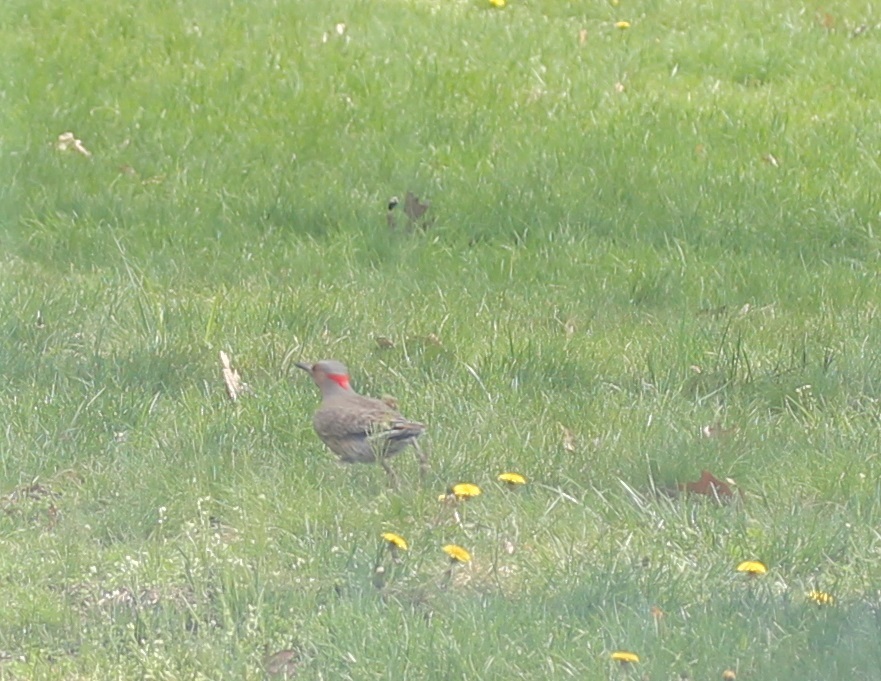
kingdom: Animalia
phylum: Chordata
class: Aves
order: Piciformes
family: Picidae
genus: Colaptes
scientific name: Colaptes auratus
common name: Northern flicker
